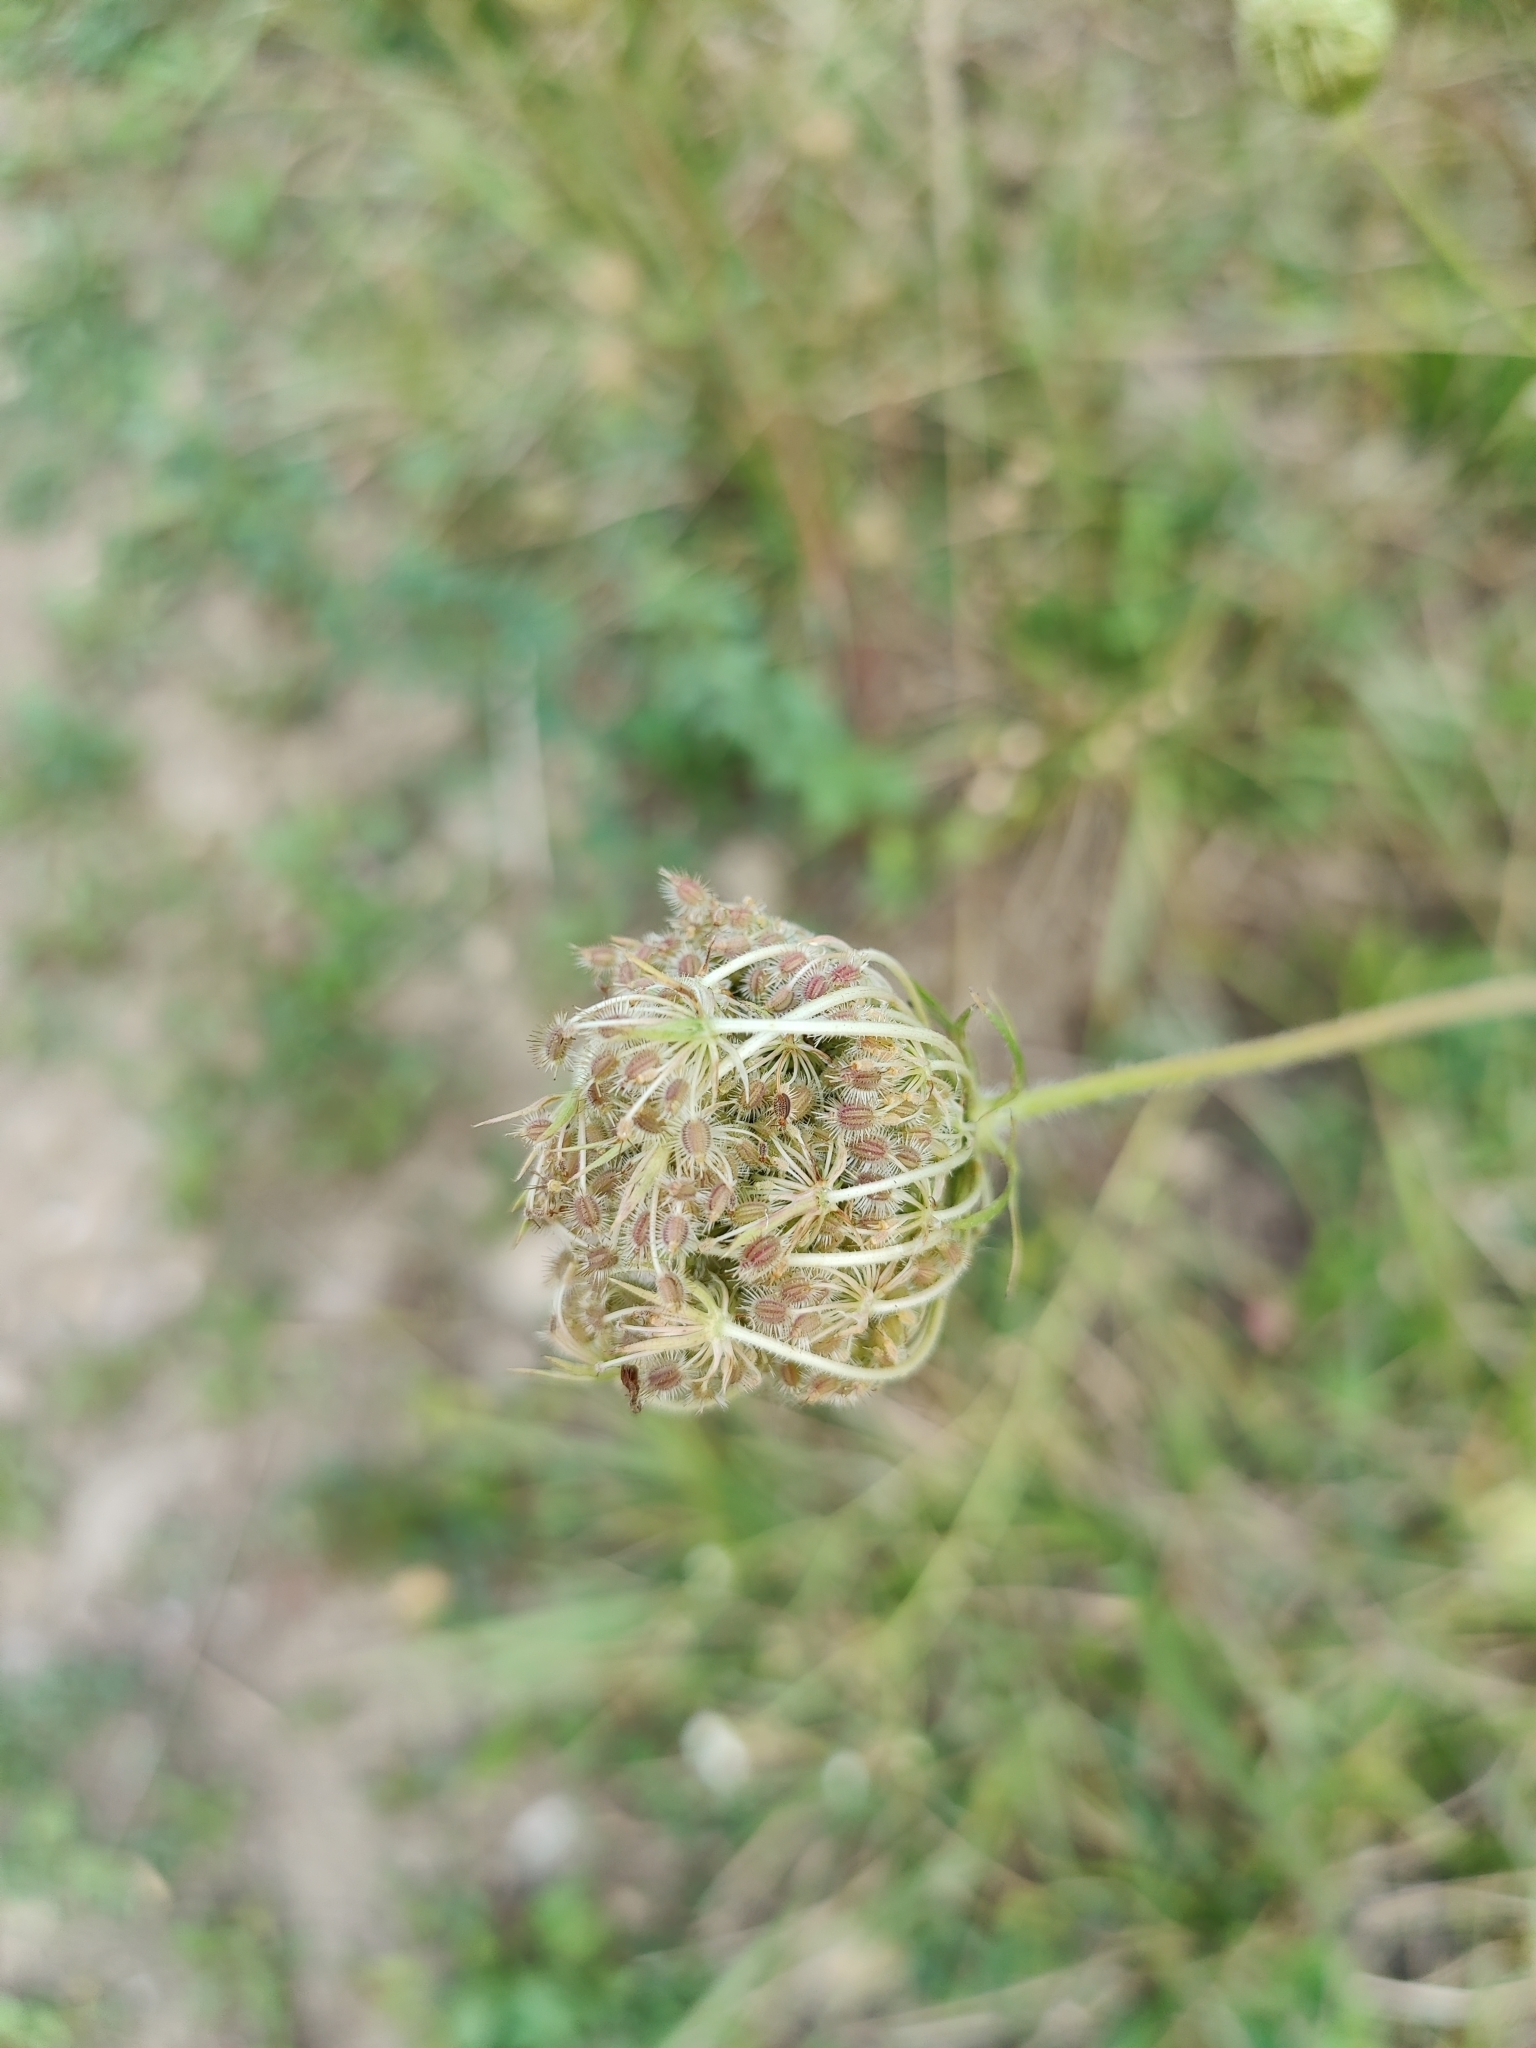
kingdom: Plantae
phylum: Tracheophyta
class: Magnoliopsida
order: Apiales
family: Apiaceae
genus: Daucus
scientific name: Daucus carota
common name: Wild carrot
